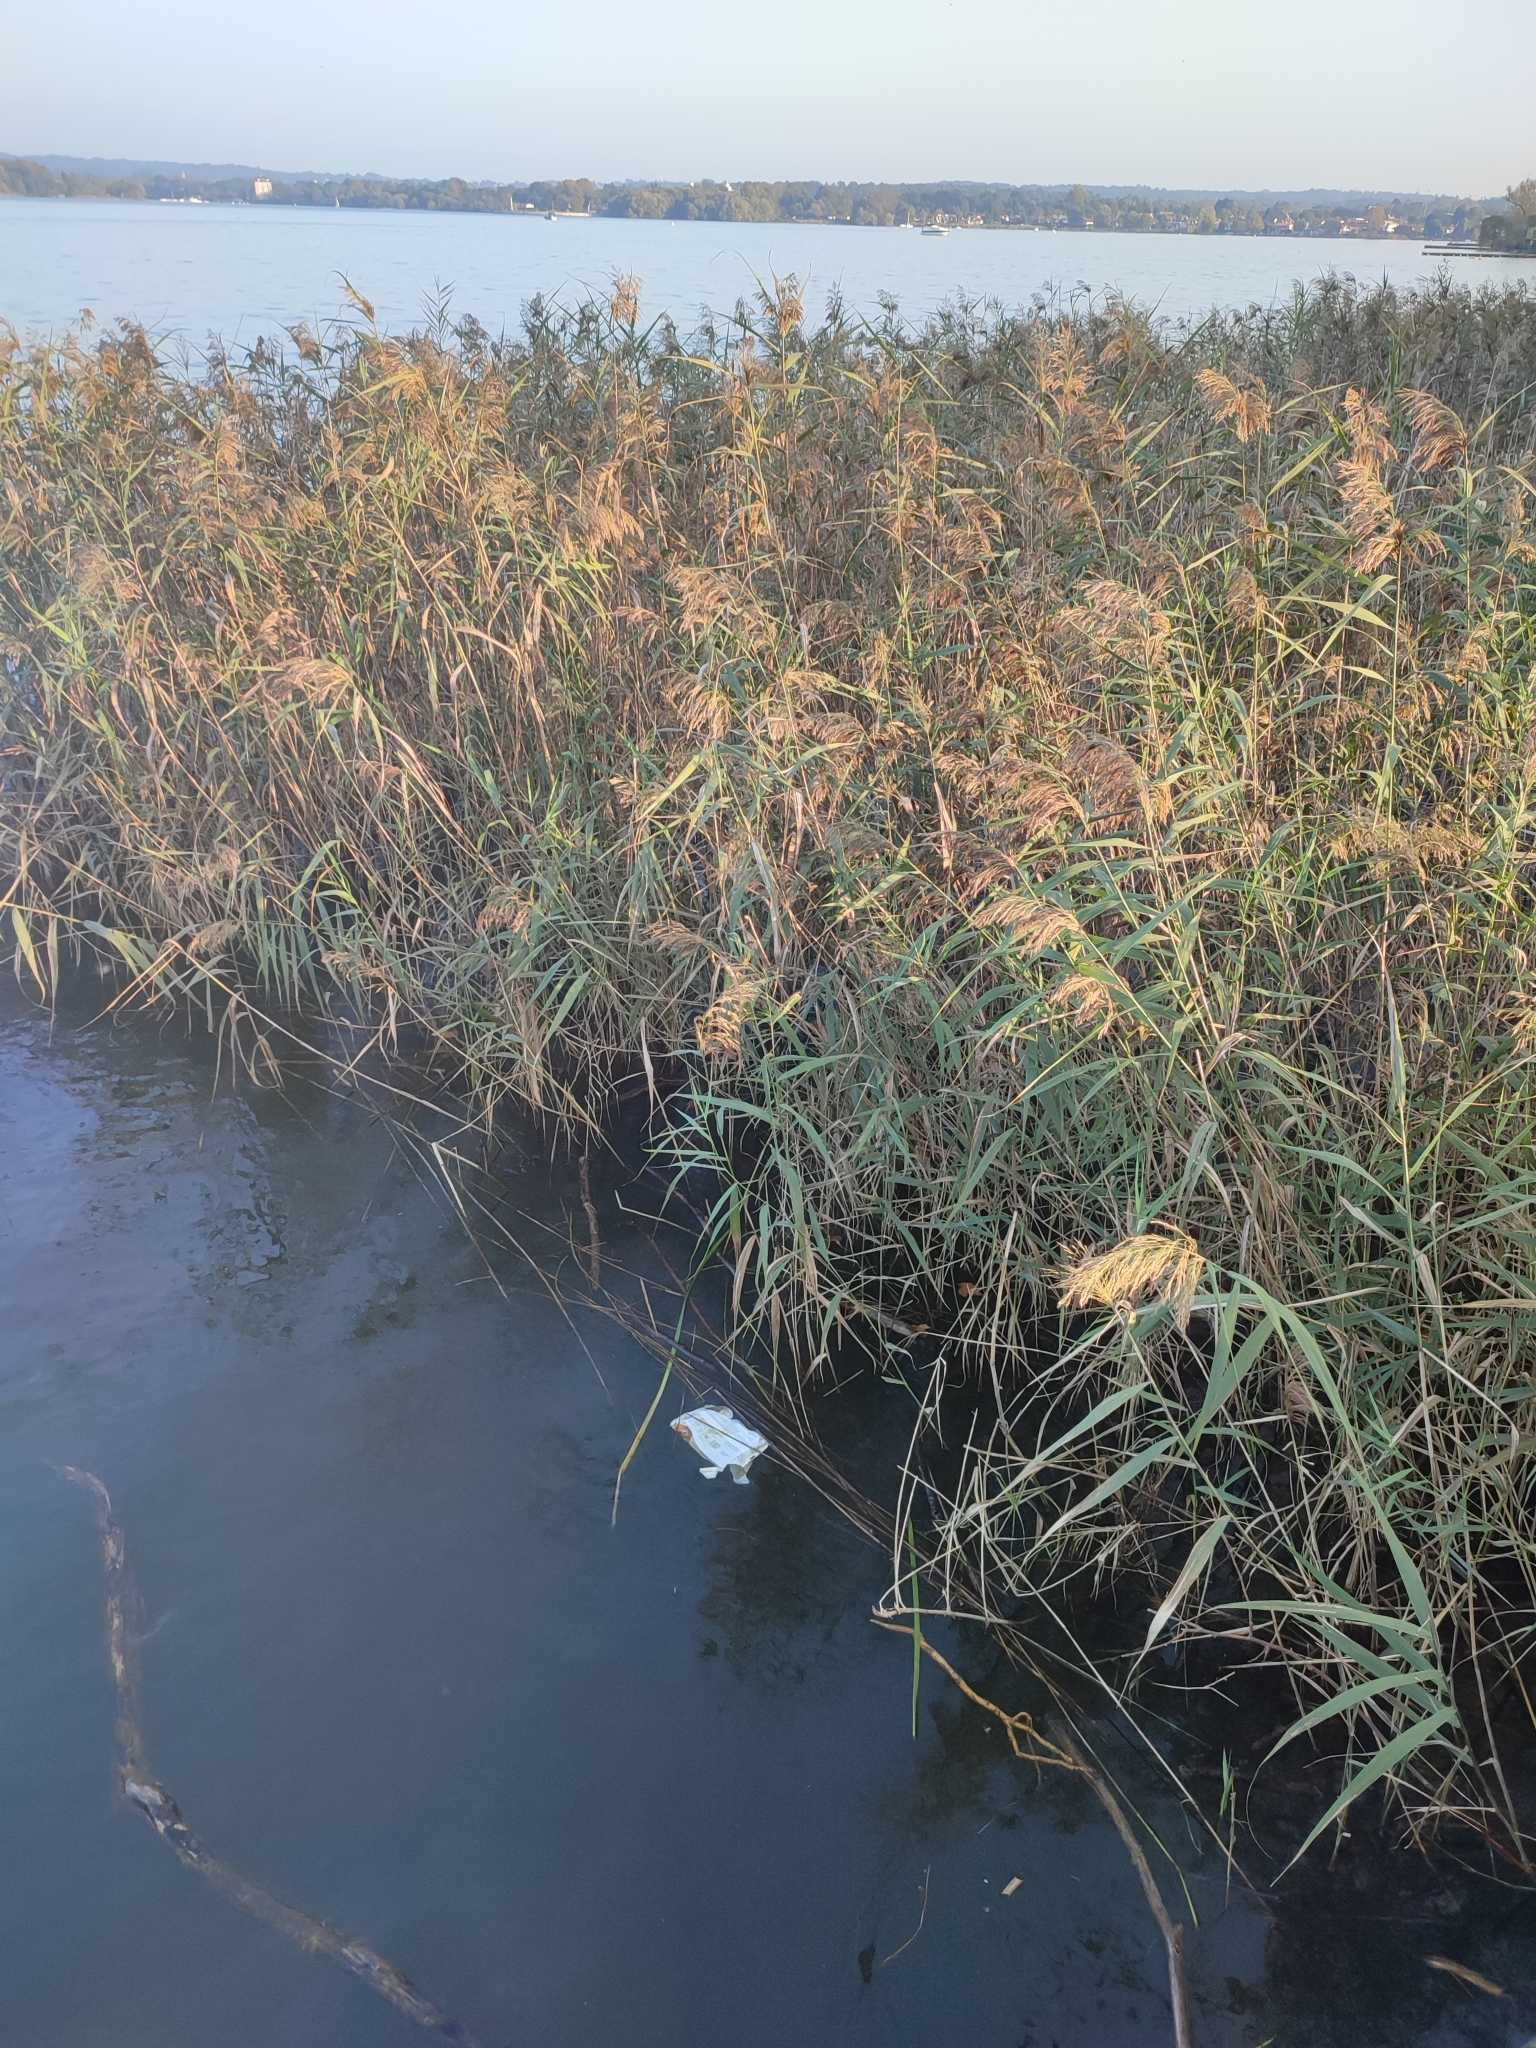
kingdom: Plantae
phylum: Tracheophyta
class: Liliopsida
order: Poales
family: Poaceae
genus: Phragmites
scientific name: Phragmites australis
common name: Common reed
